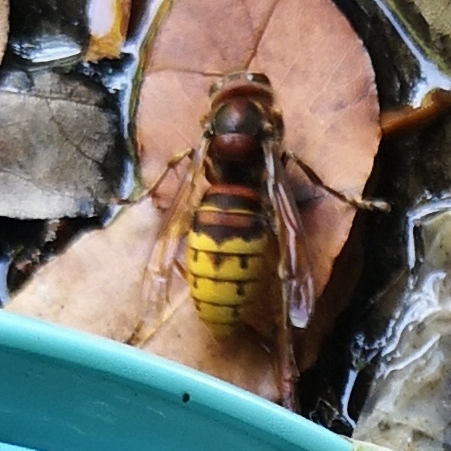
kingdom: Animalia
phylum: Arthropoda
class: Insecta
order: Hymenoptera
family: Vespidae
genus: Vespa
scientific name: Vespa crabro
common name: Hornet
